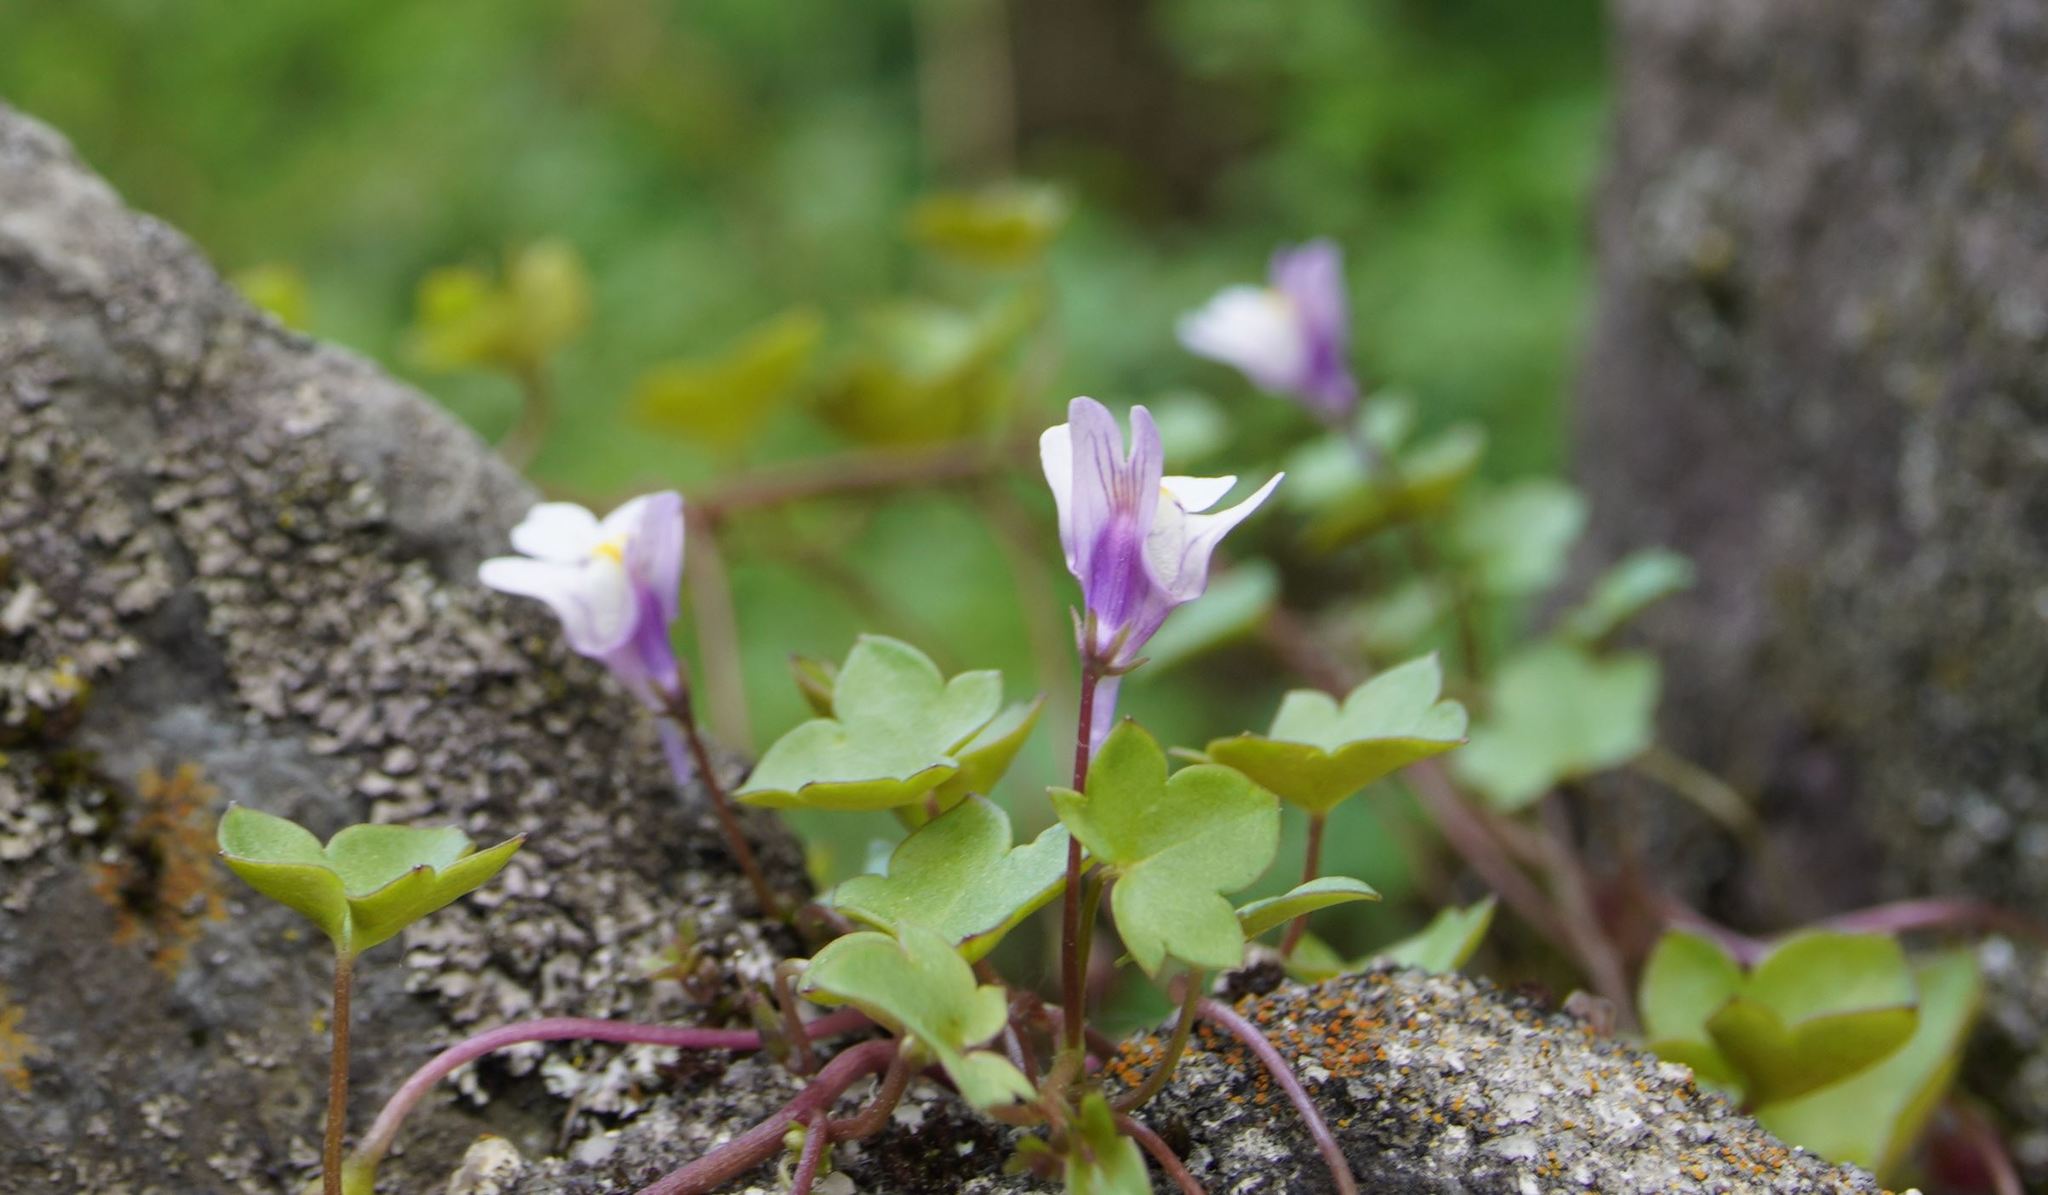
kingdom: Plantae
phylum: Tracheophyta
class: Magnoliopsida
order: Lamiales
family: Plantaginaceae
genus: Cymbalaria
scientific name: Cymbalaria muralis
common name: Ivy-leaved toadflax
